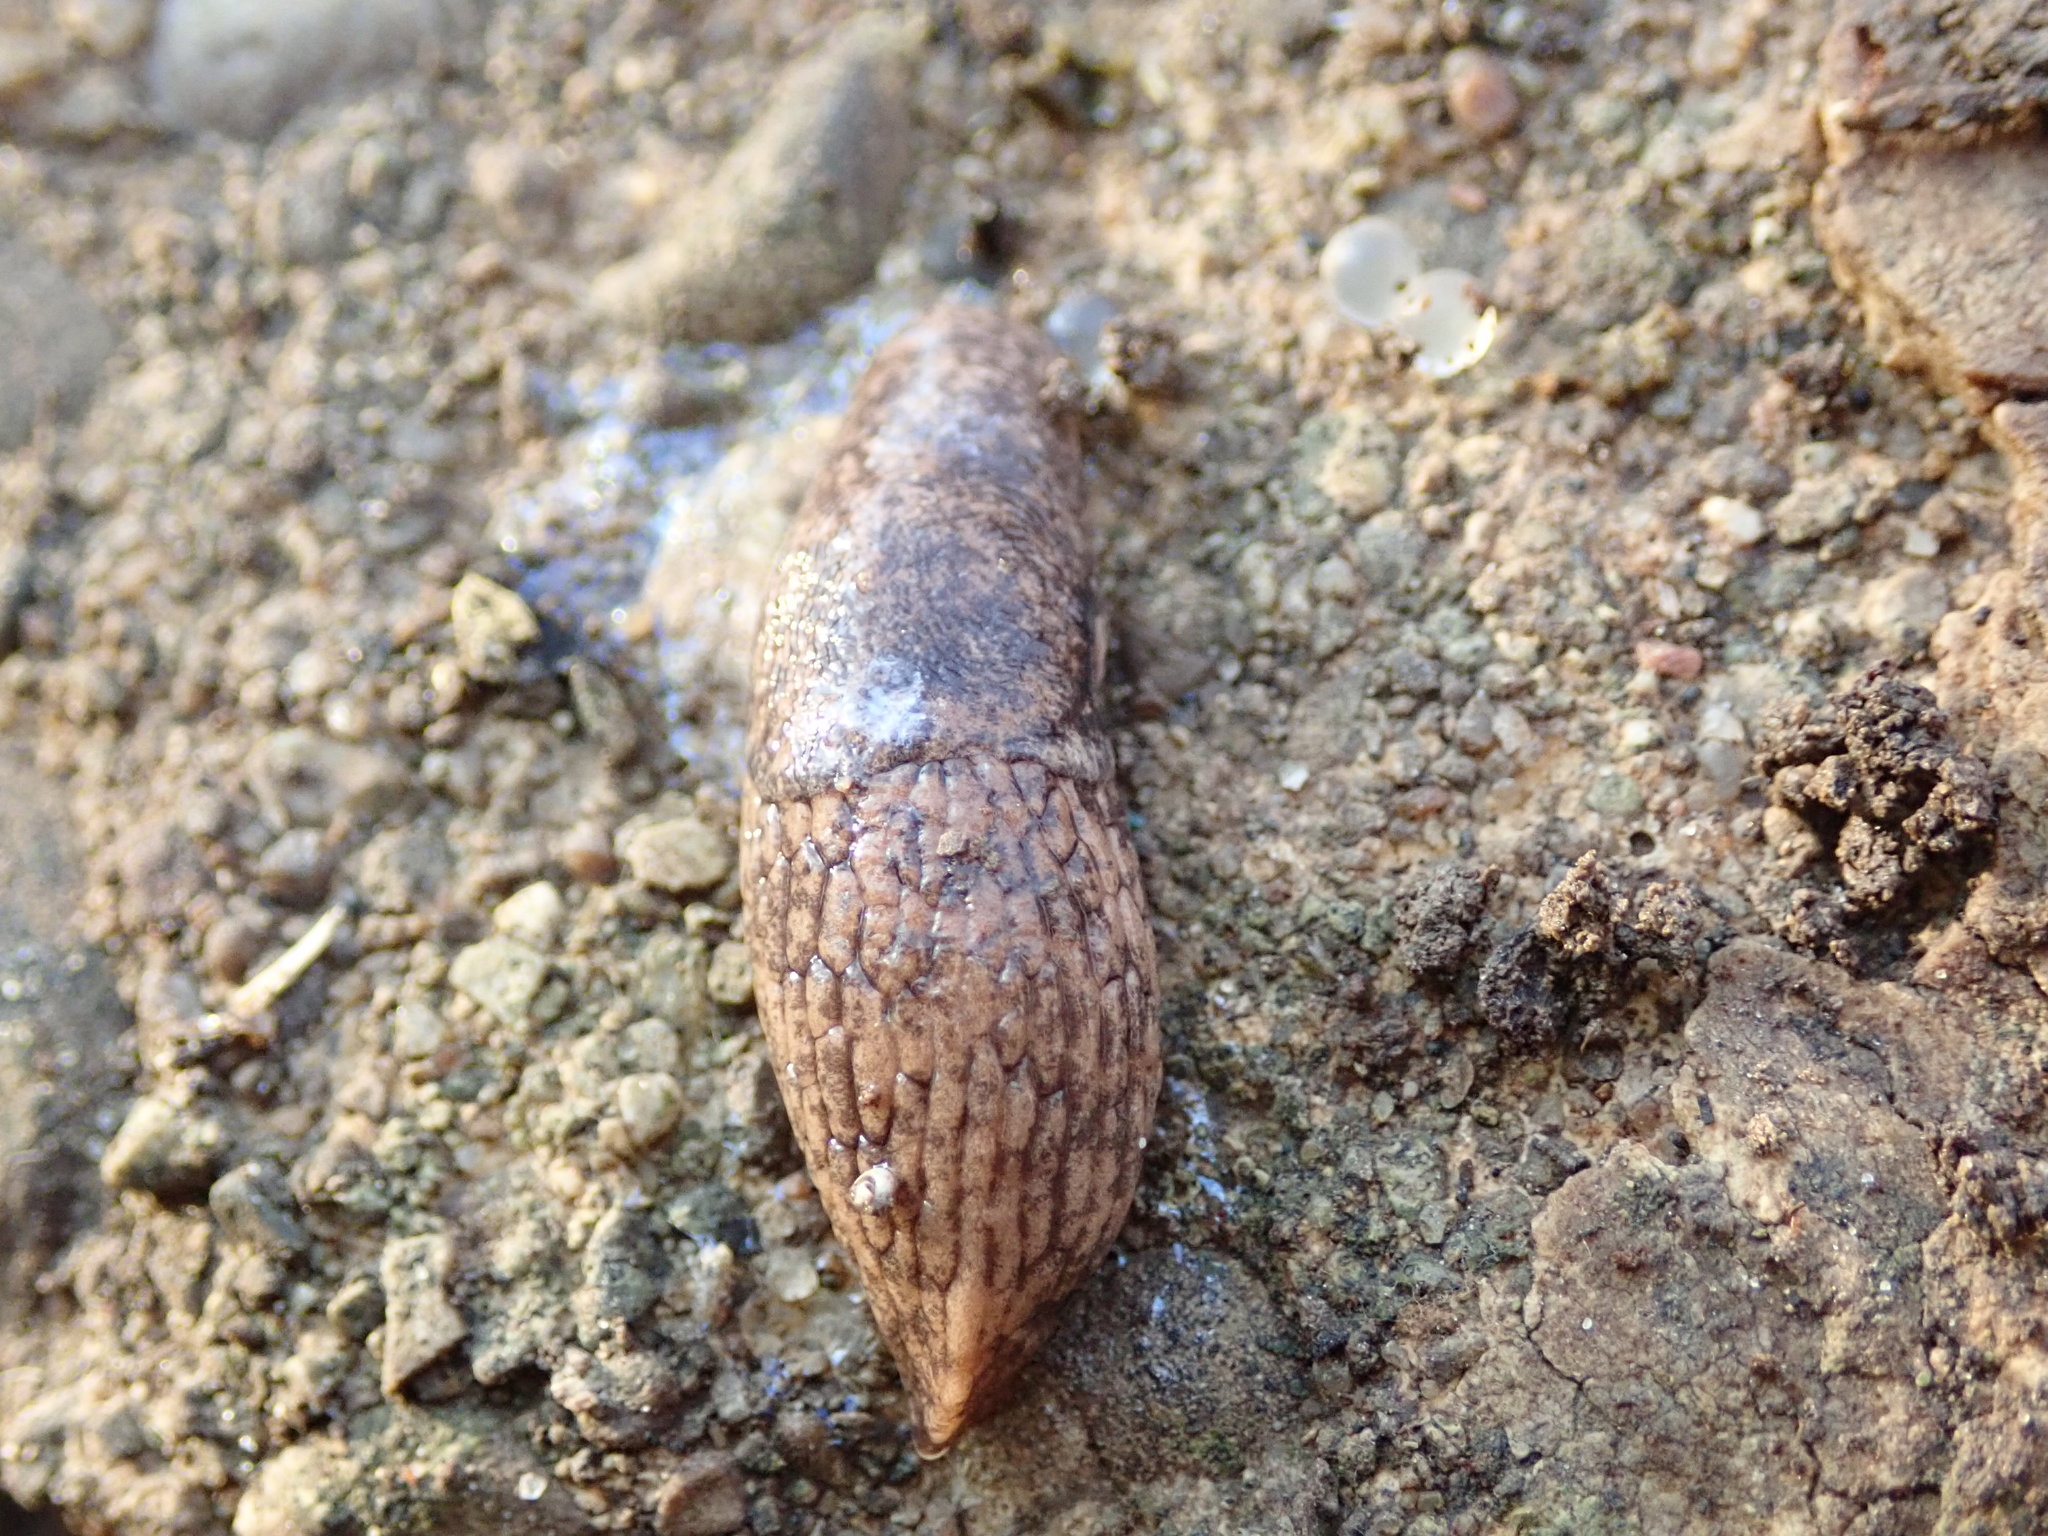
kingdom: Animalia
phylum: Mollusca
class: Gastropoda
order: Stylommatophora
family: Agriolimacidae
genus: Deroceras
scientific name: Deroceras reticulatum
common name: Gray field slug
